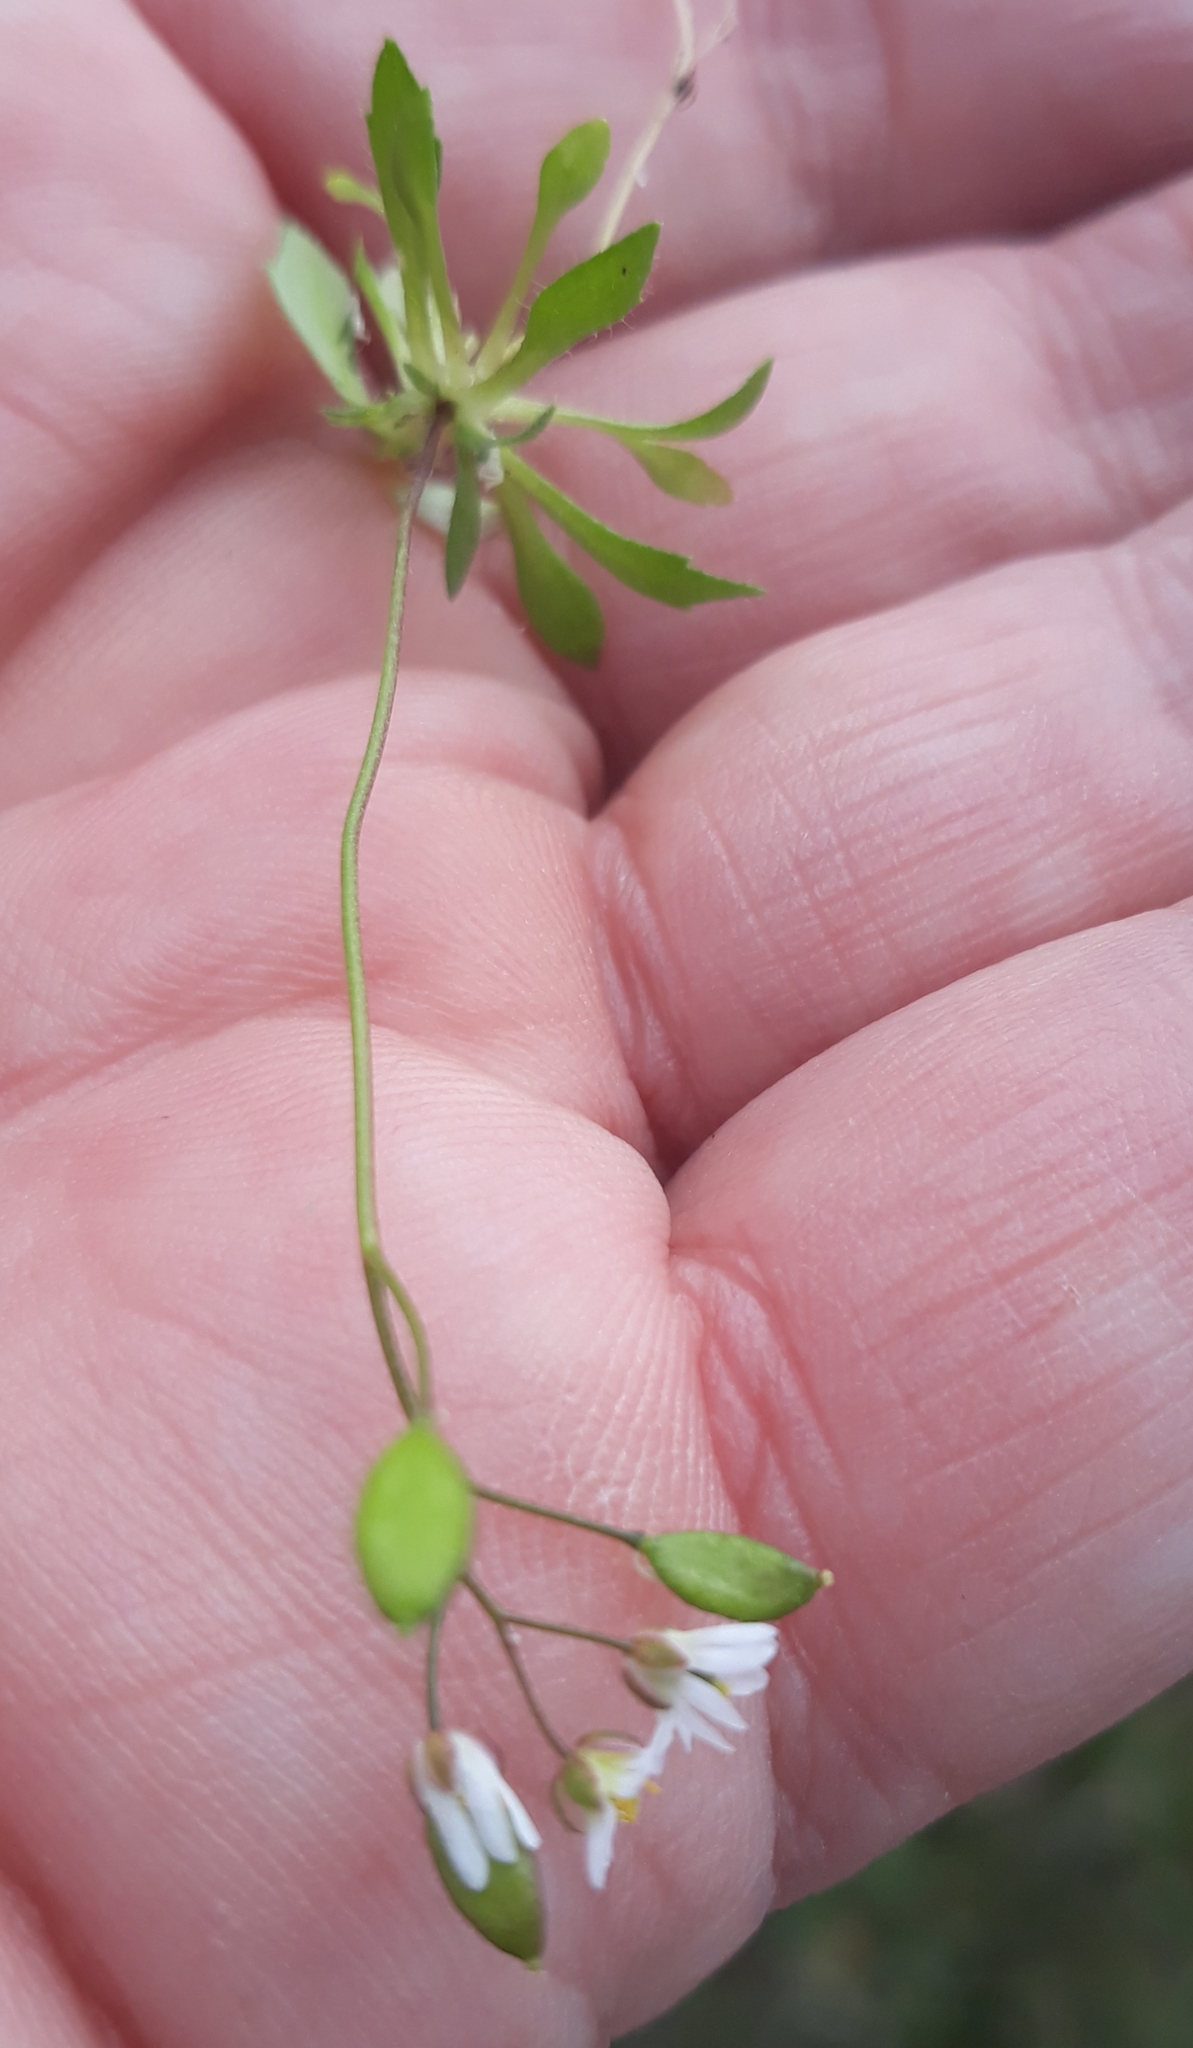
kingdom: Plantae
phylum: Tracheophyta
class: Magnoliopsida
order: Brassicales
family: Brassicaceae
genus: Draba
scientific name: Draba verna
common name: Spring draba
